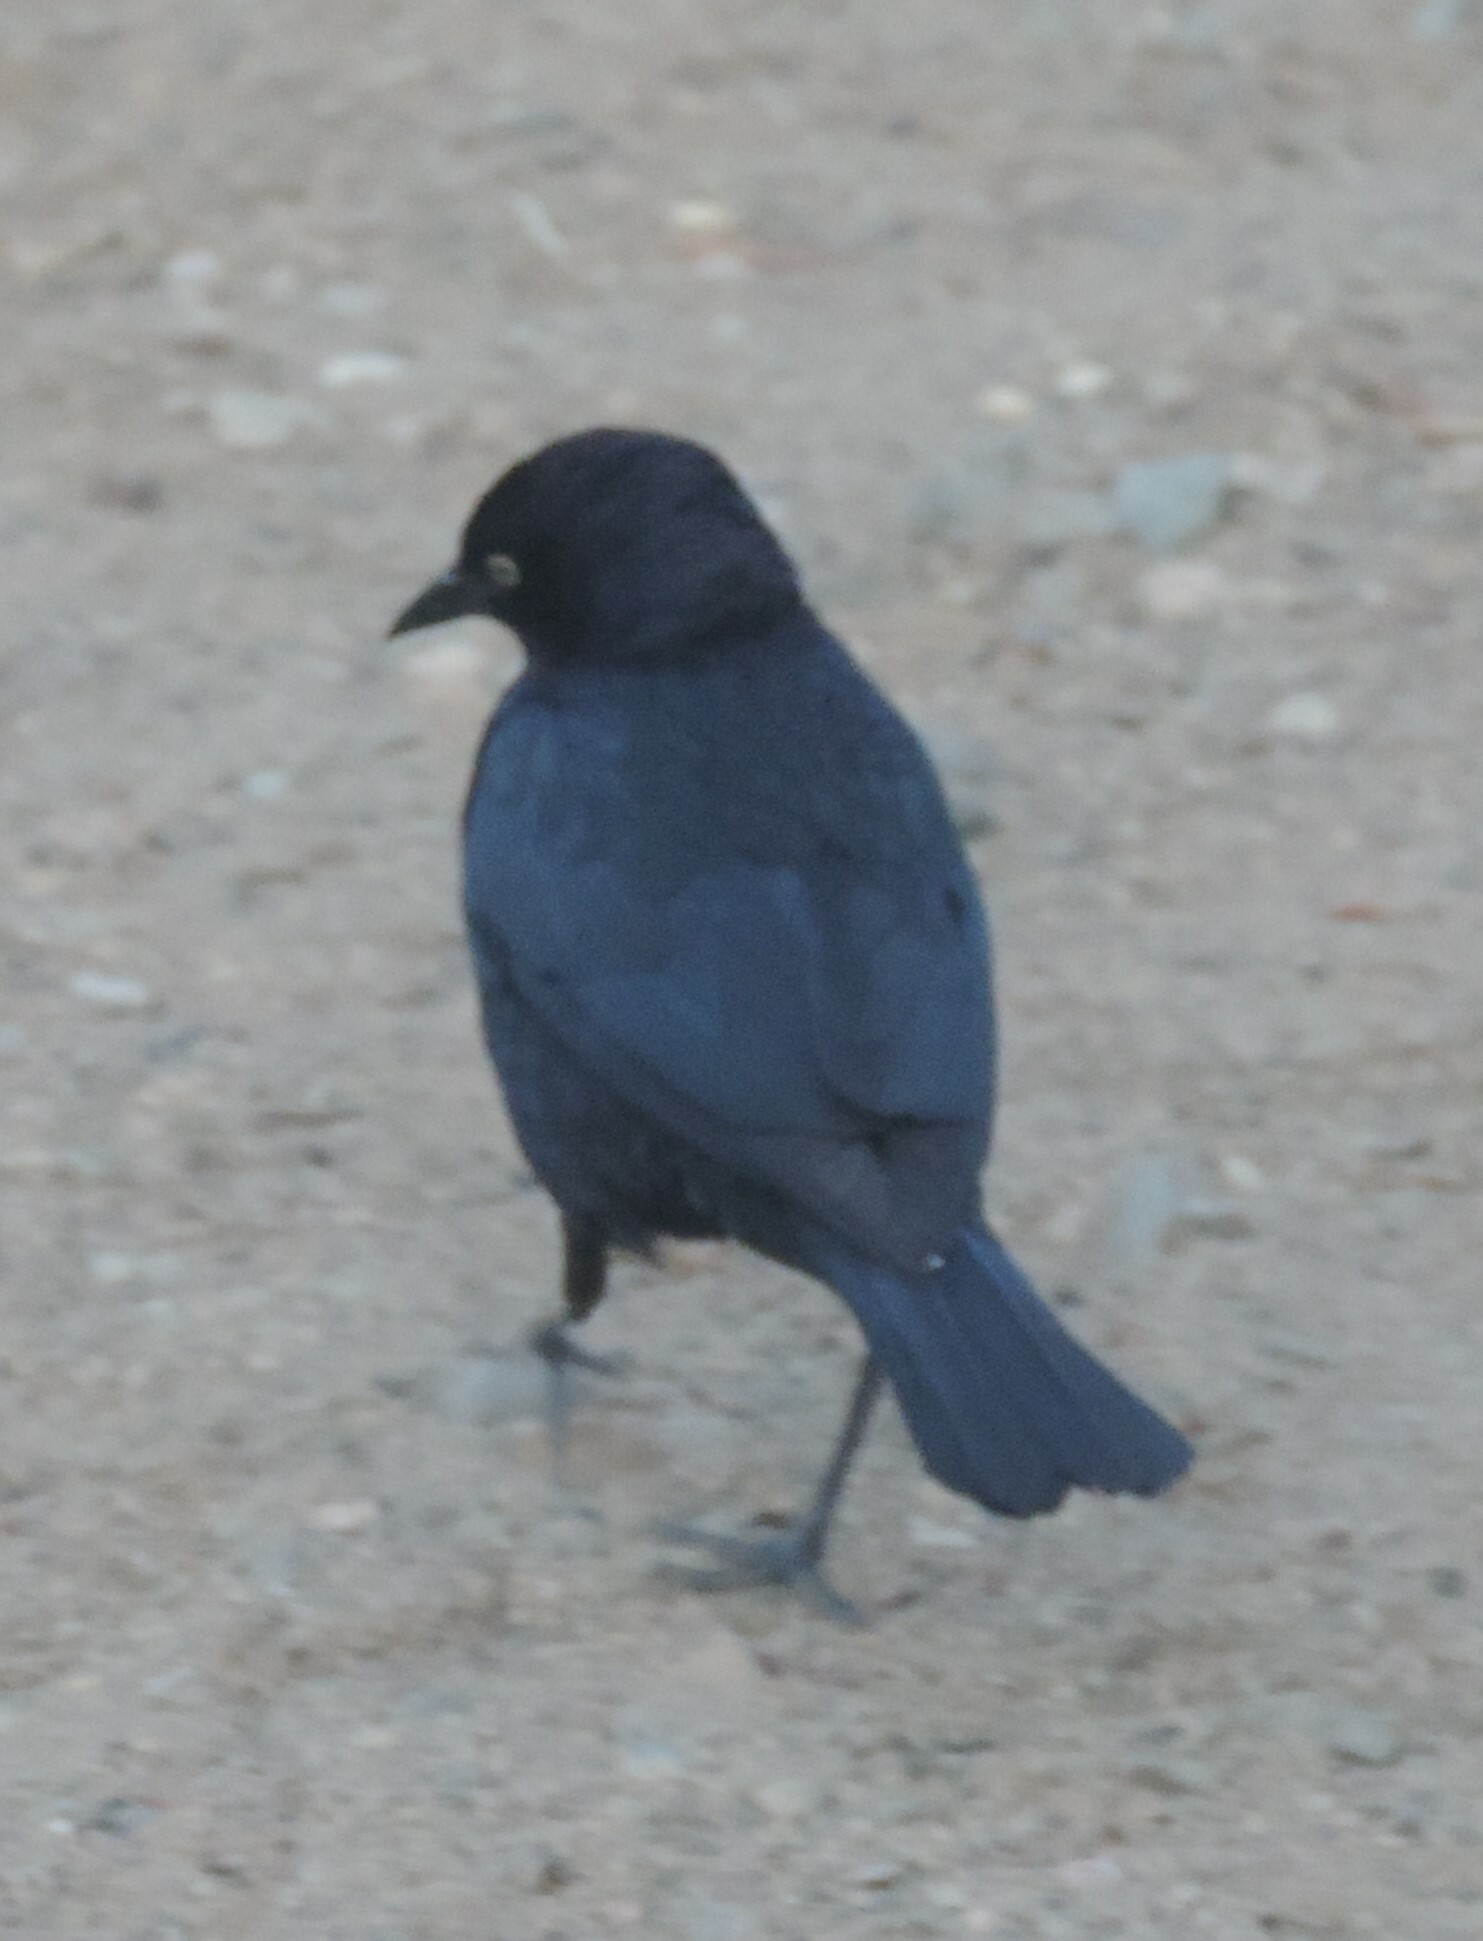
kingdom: Animalia
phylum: Chordata
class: Aves
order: Passeriformes
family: Icteridae
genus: Euphagus
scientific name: Euphagus cyanocephalus
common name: Brewer's blackbird
